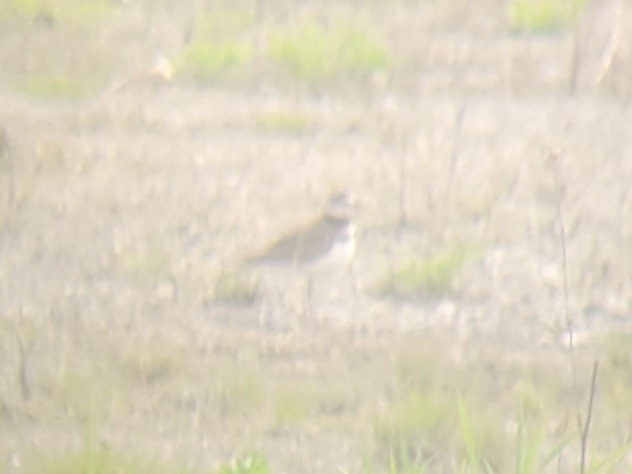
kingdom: Animalia
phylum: Chordata
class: Aves
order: Charadriiformes
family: Charadriidae
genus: Charadrius
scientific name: Charadrius vociferus
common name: Killdeer
